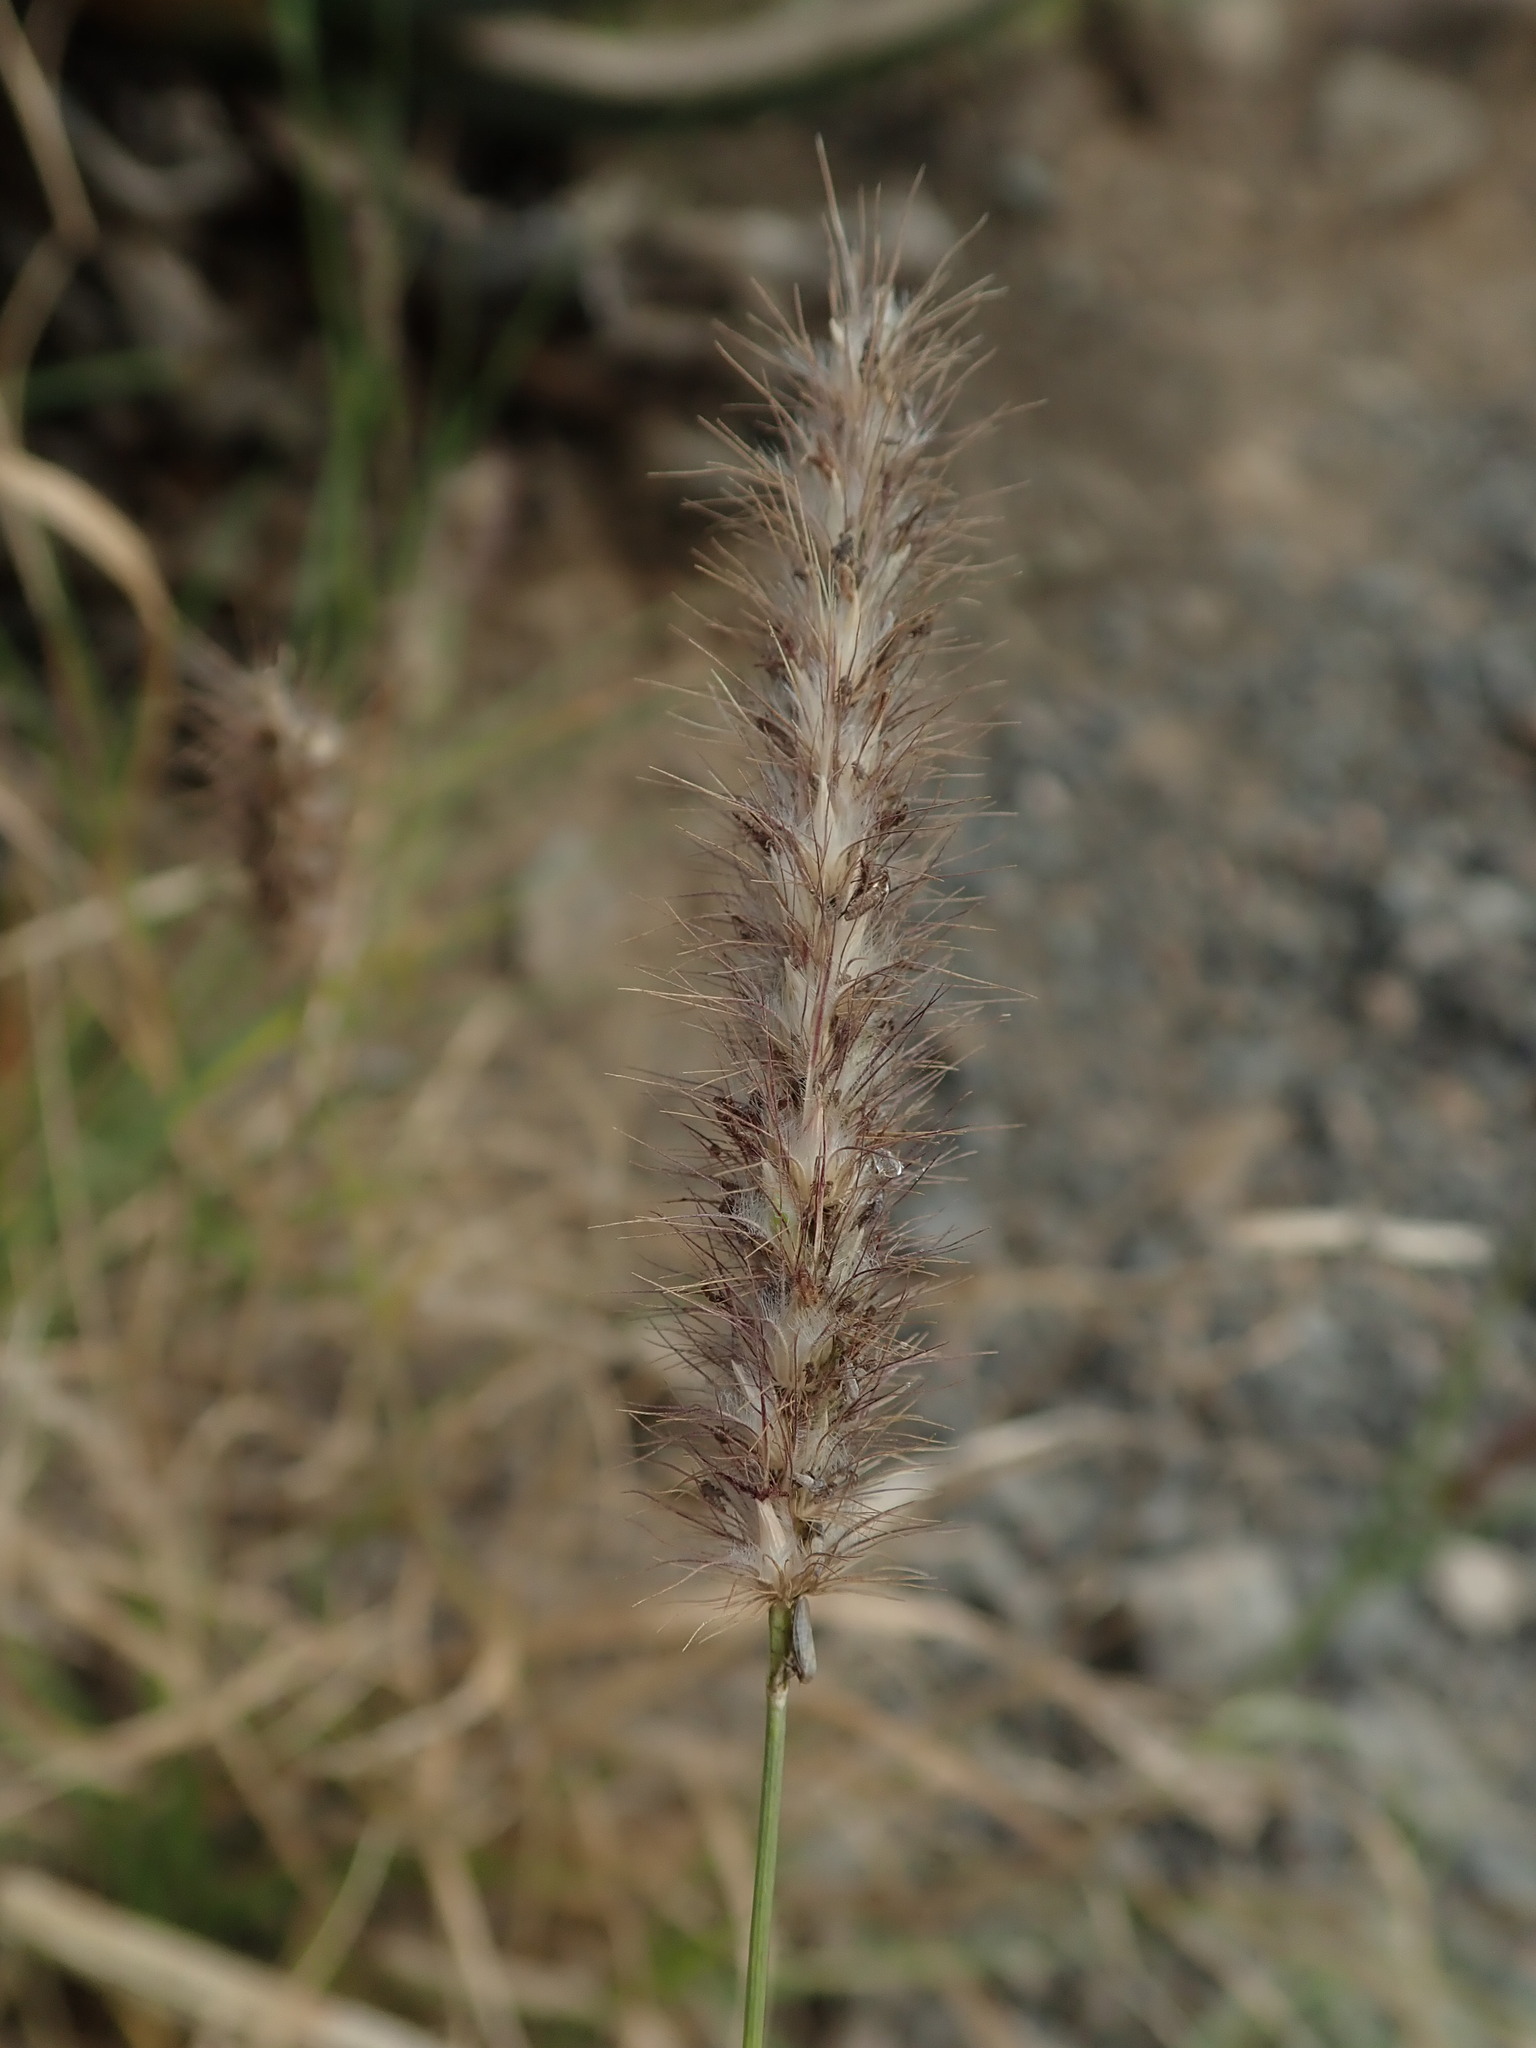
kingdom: Plantae
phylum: Tracheophyta
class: Liliopsida
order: Poales
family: Poaceae
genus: Cenchrus
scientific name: Cenchrus ciliaris
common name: Buffelgrass
